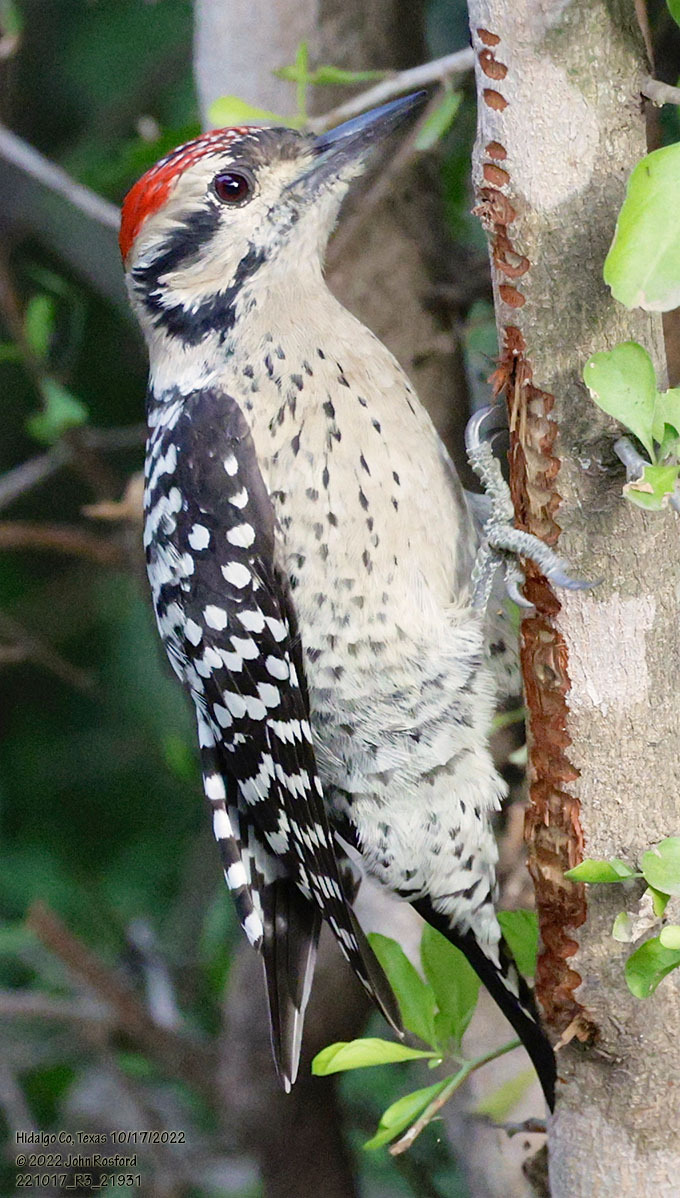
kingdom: Animalia
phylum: Chordata
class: Aves
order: Piciformes
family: Picidae
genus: Dryobates
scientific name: Dryobates scalaris
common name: Ladder-backed woodpecker
